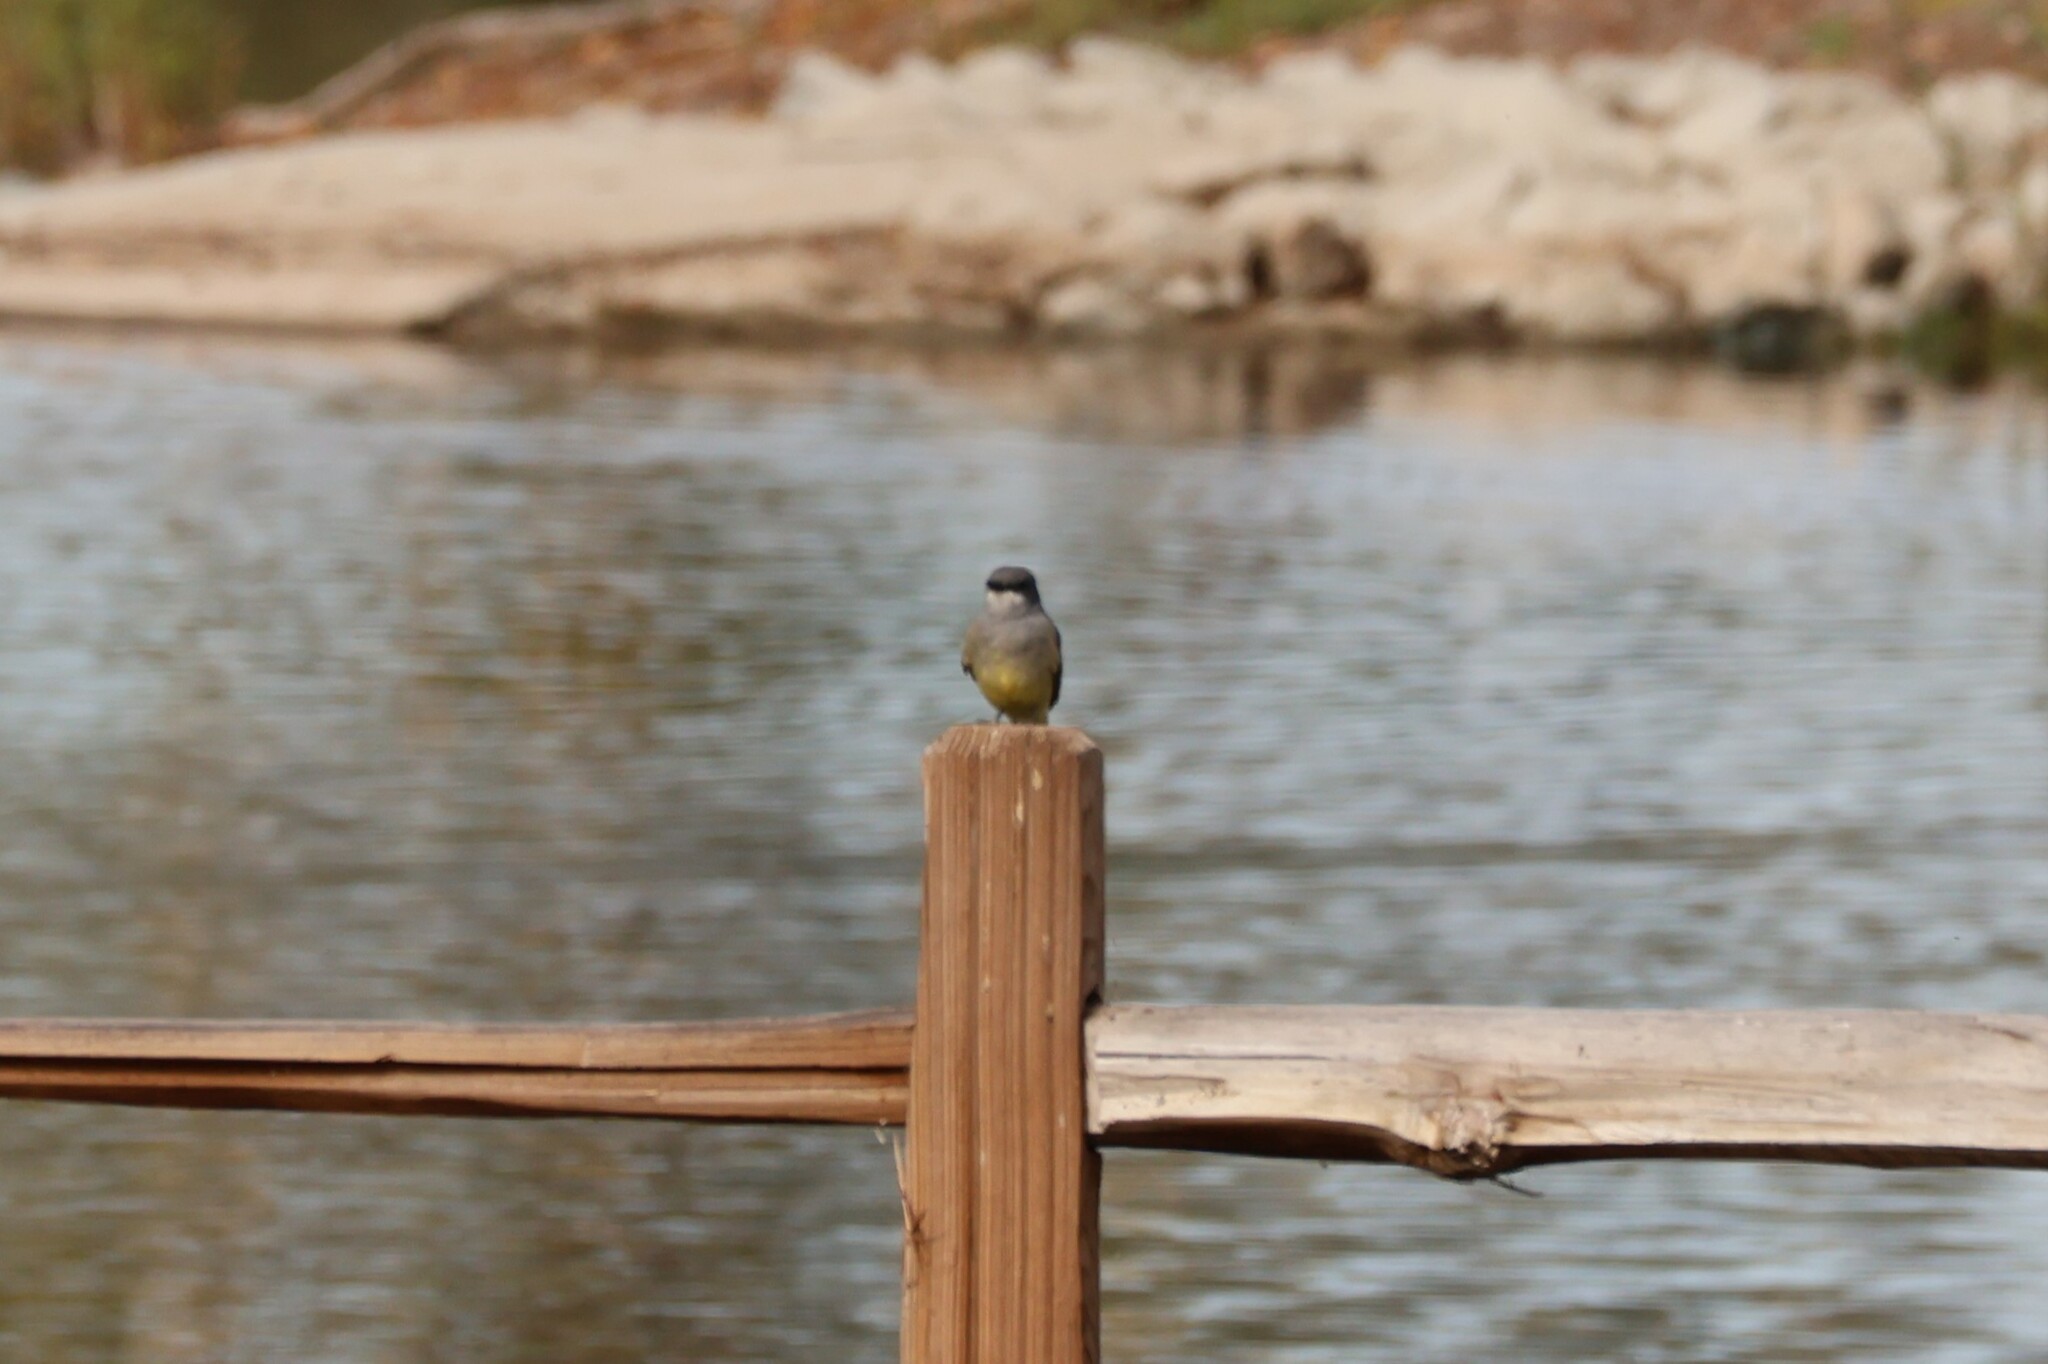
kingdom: Animalia
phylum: Chordata
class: Aves
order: Passeriformes
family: Tyrannidae
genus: Tyrannus
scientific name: Tyrannus vociferans
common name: Cassin's kingbird
